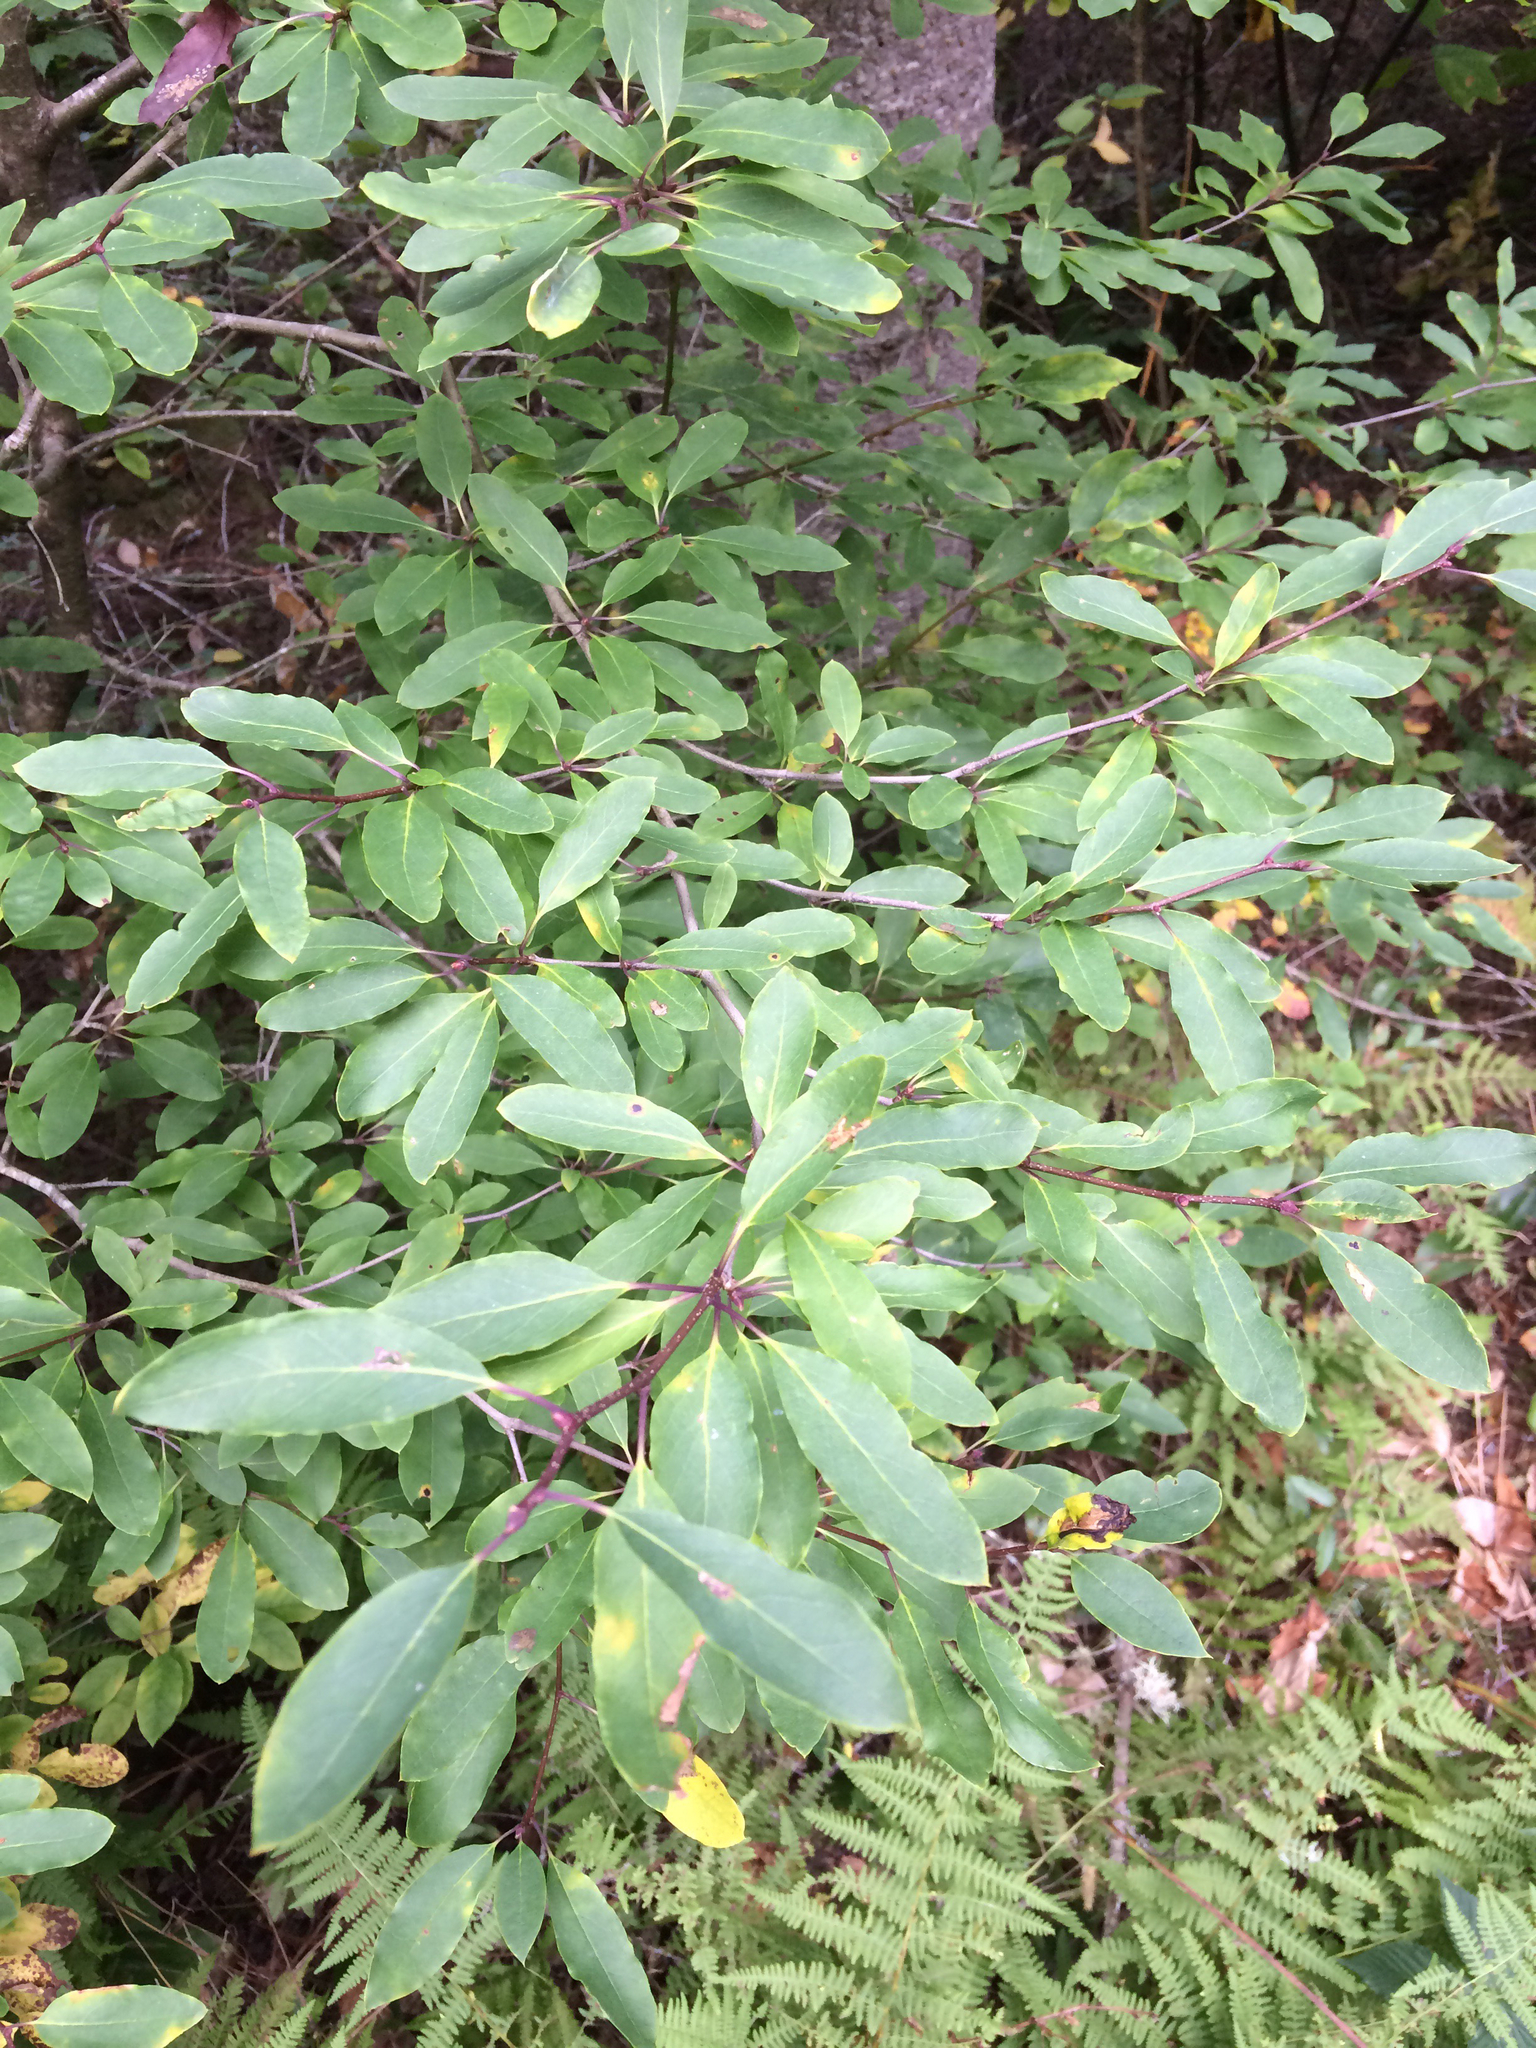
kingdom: Plantae
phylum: Tracheophyta
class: Magnoliopsida
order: Aquifoliales
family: Aquifoliaceae
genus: Ilex
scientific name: Ilex mucronata
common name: Catberry
